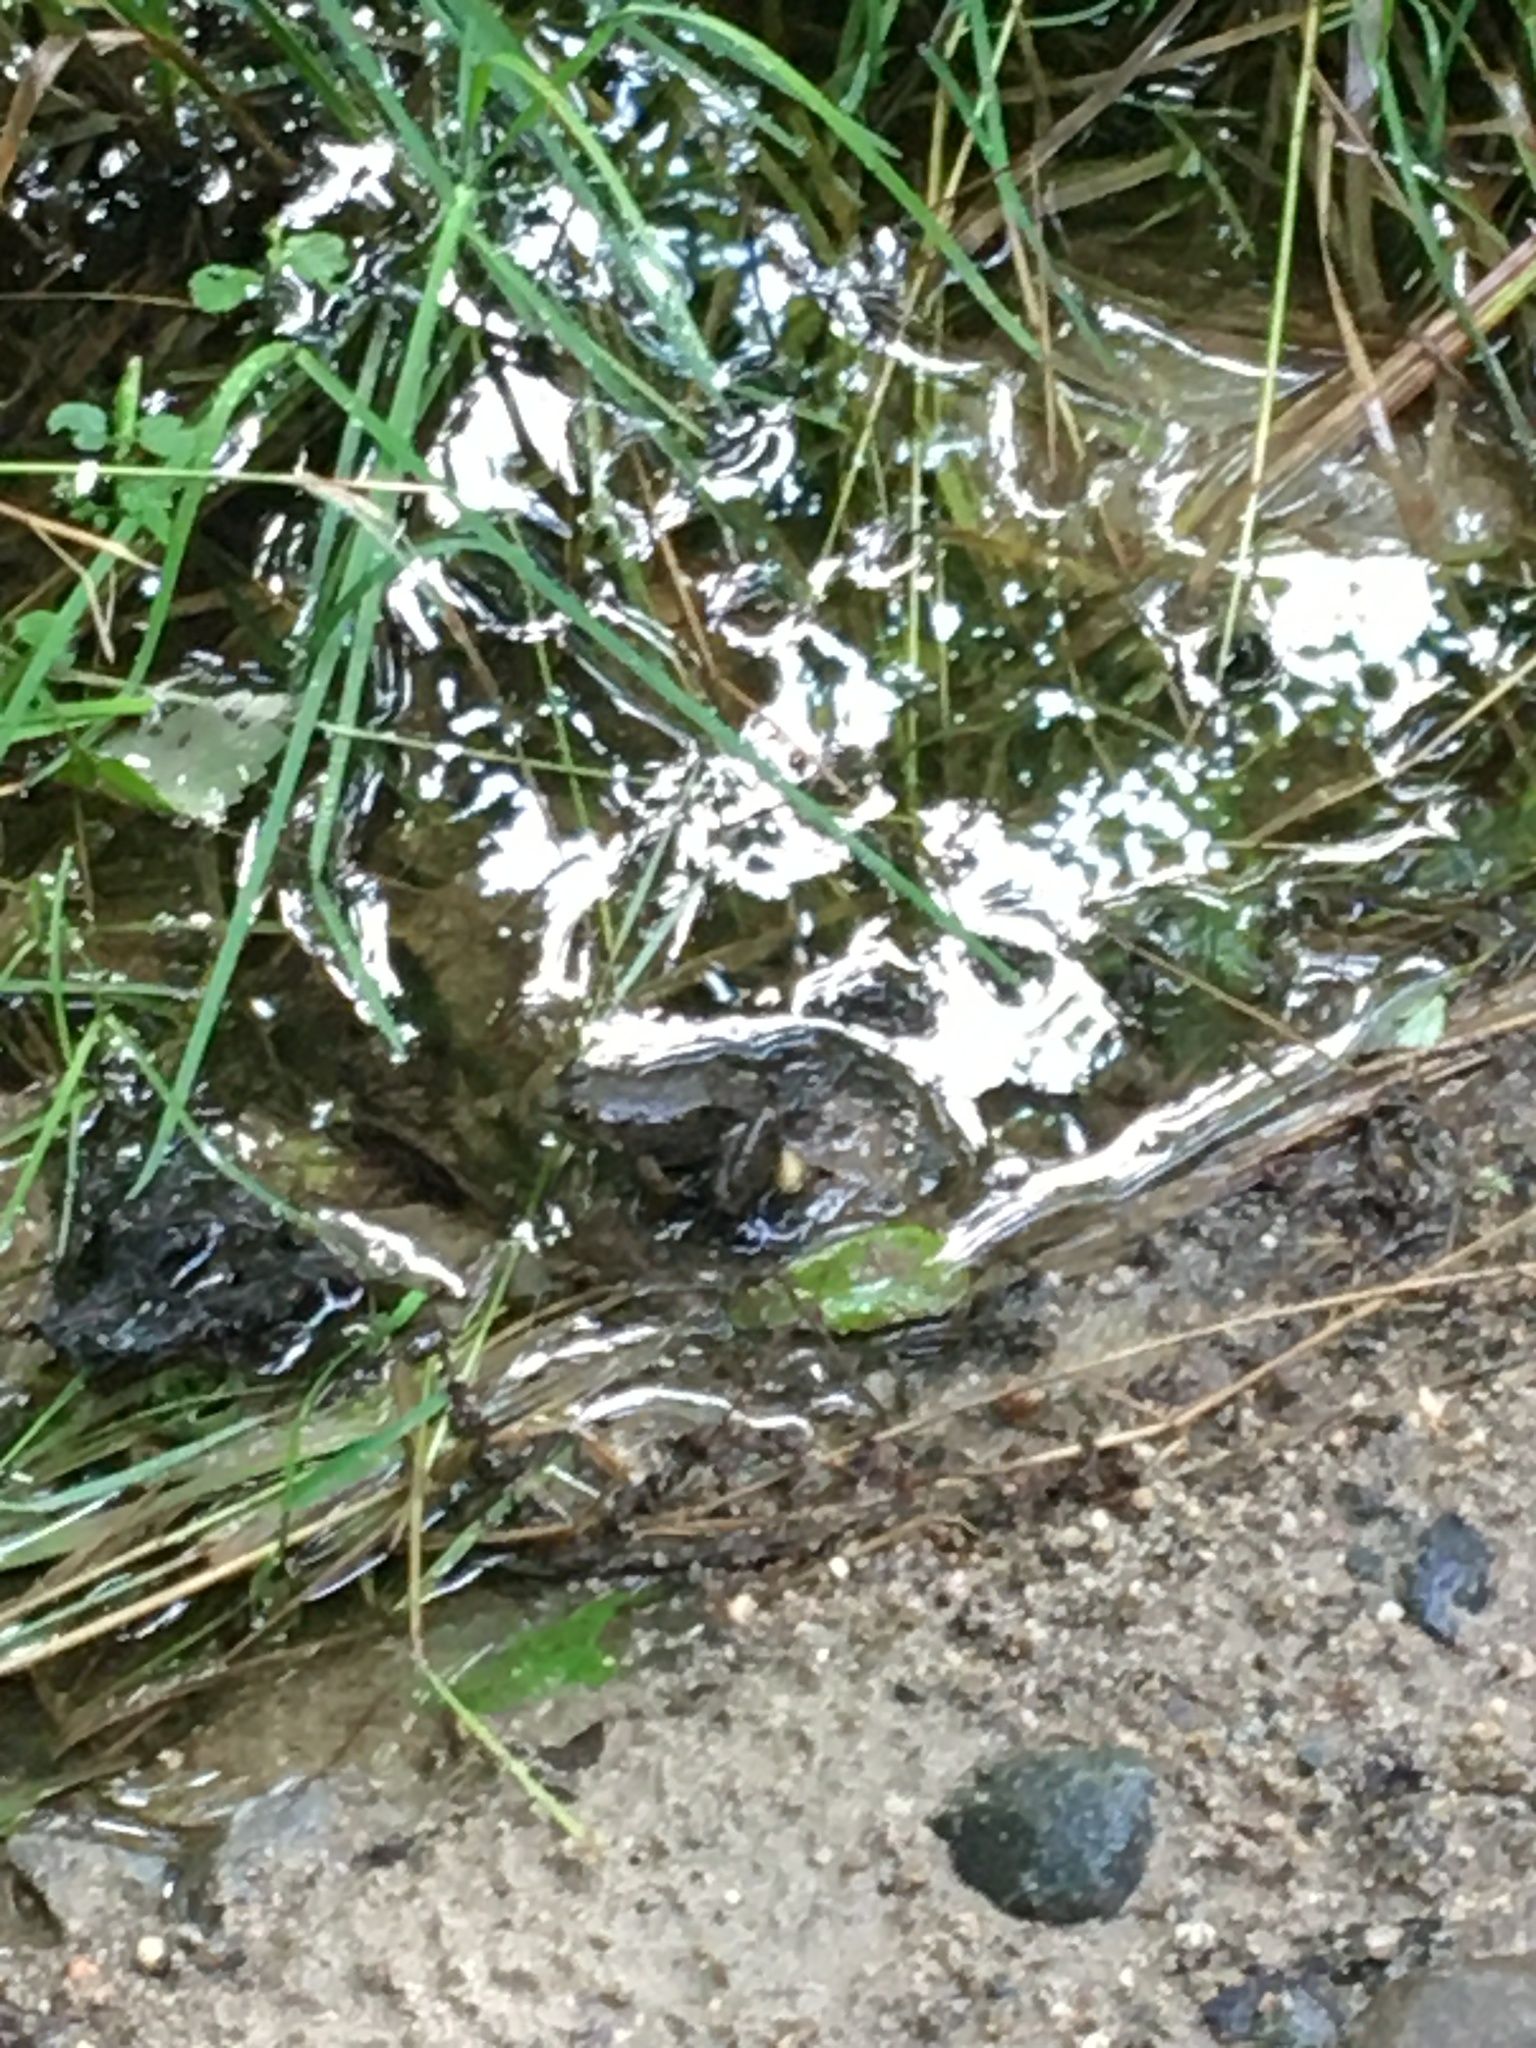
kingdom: Animalia
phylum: Chordata
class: Amphibia
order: Anura
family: Ranidae
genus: Lithobates
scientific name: Lithobates clamitans
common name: Green frog
